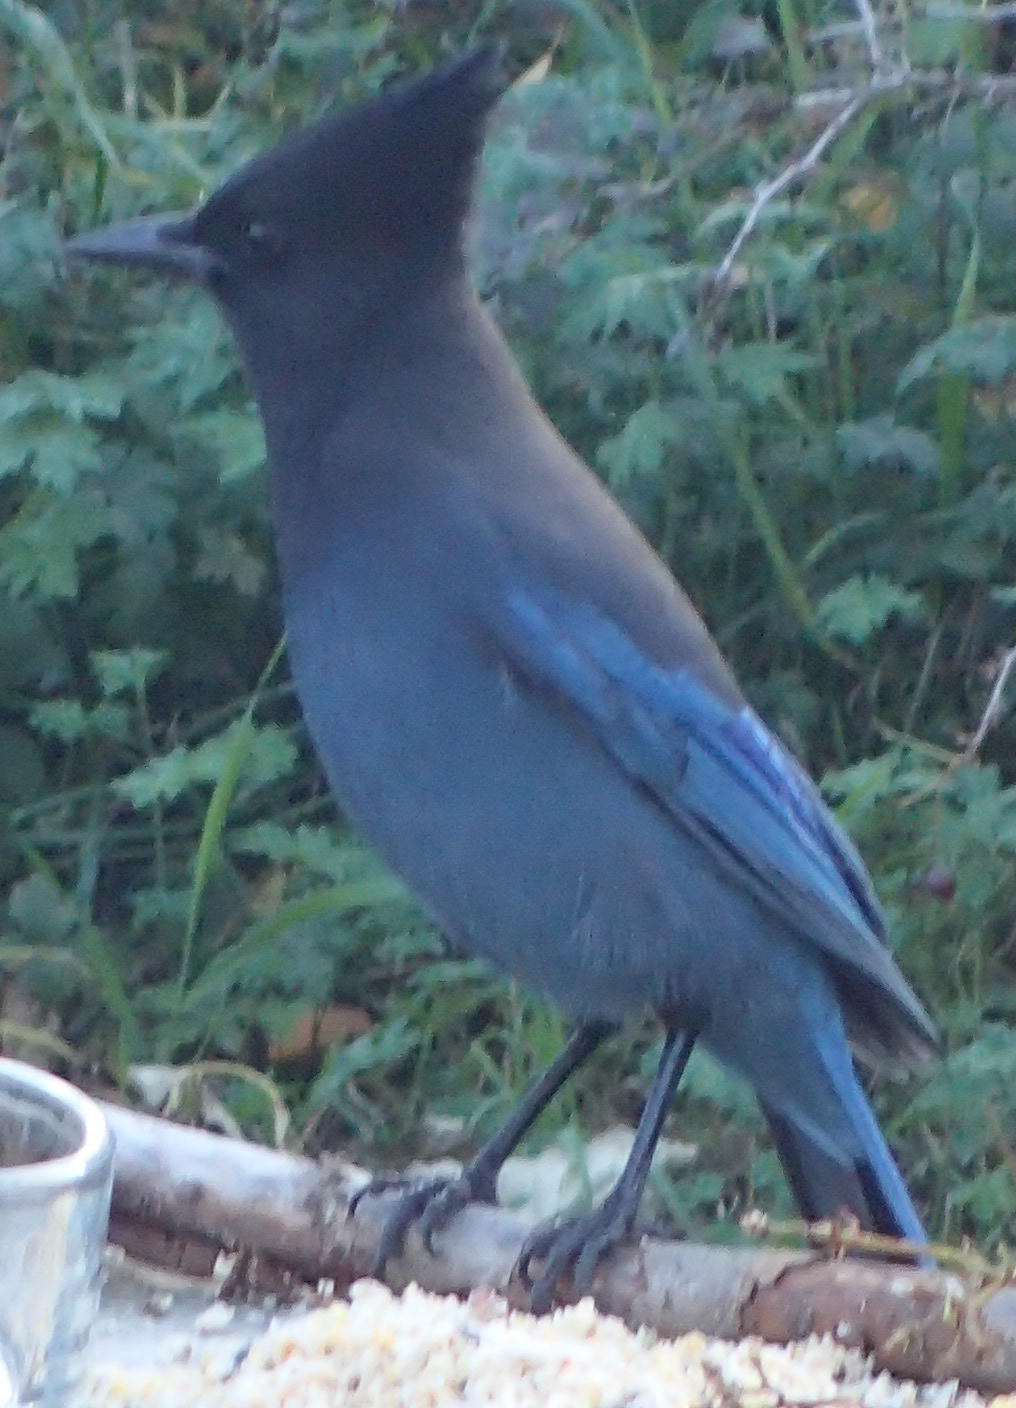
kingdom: Animalia
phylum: Chordata
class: Aves
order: Passeriformes
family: Corvidae
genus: Cyanocitta
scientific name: Cyanocitta stelleri
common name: Steller's jay
